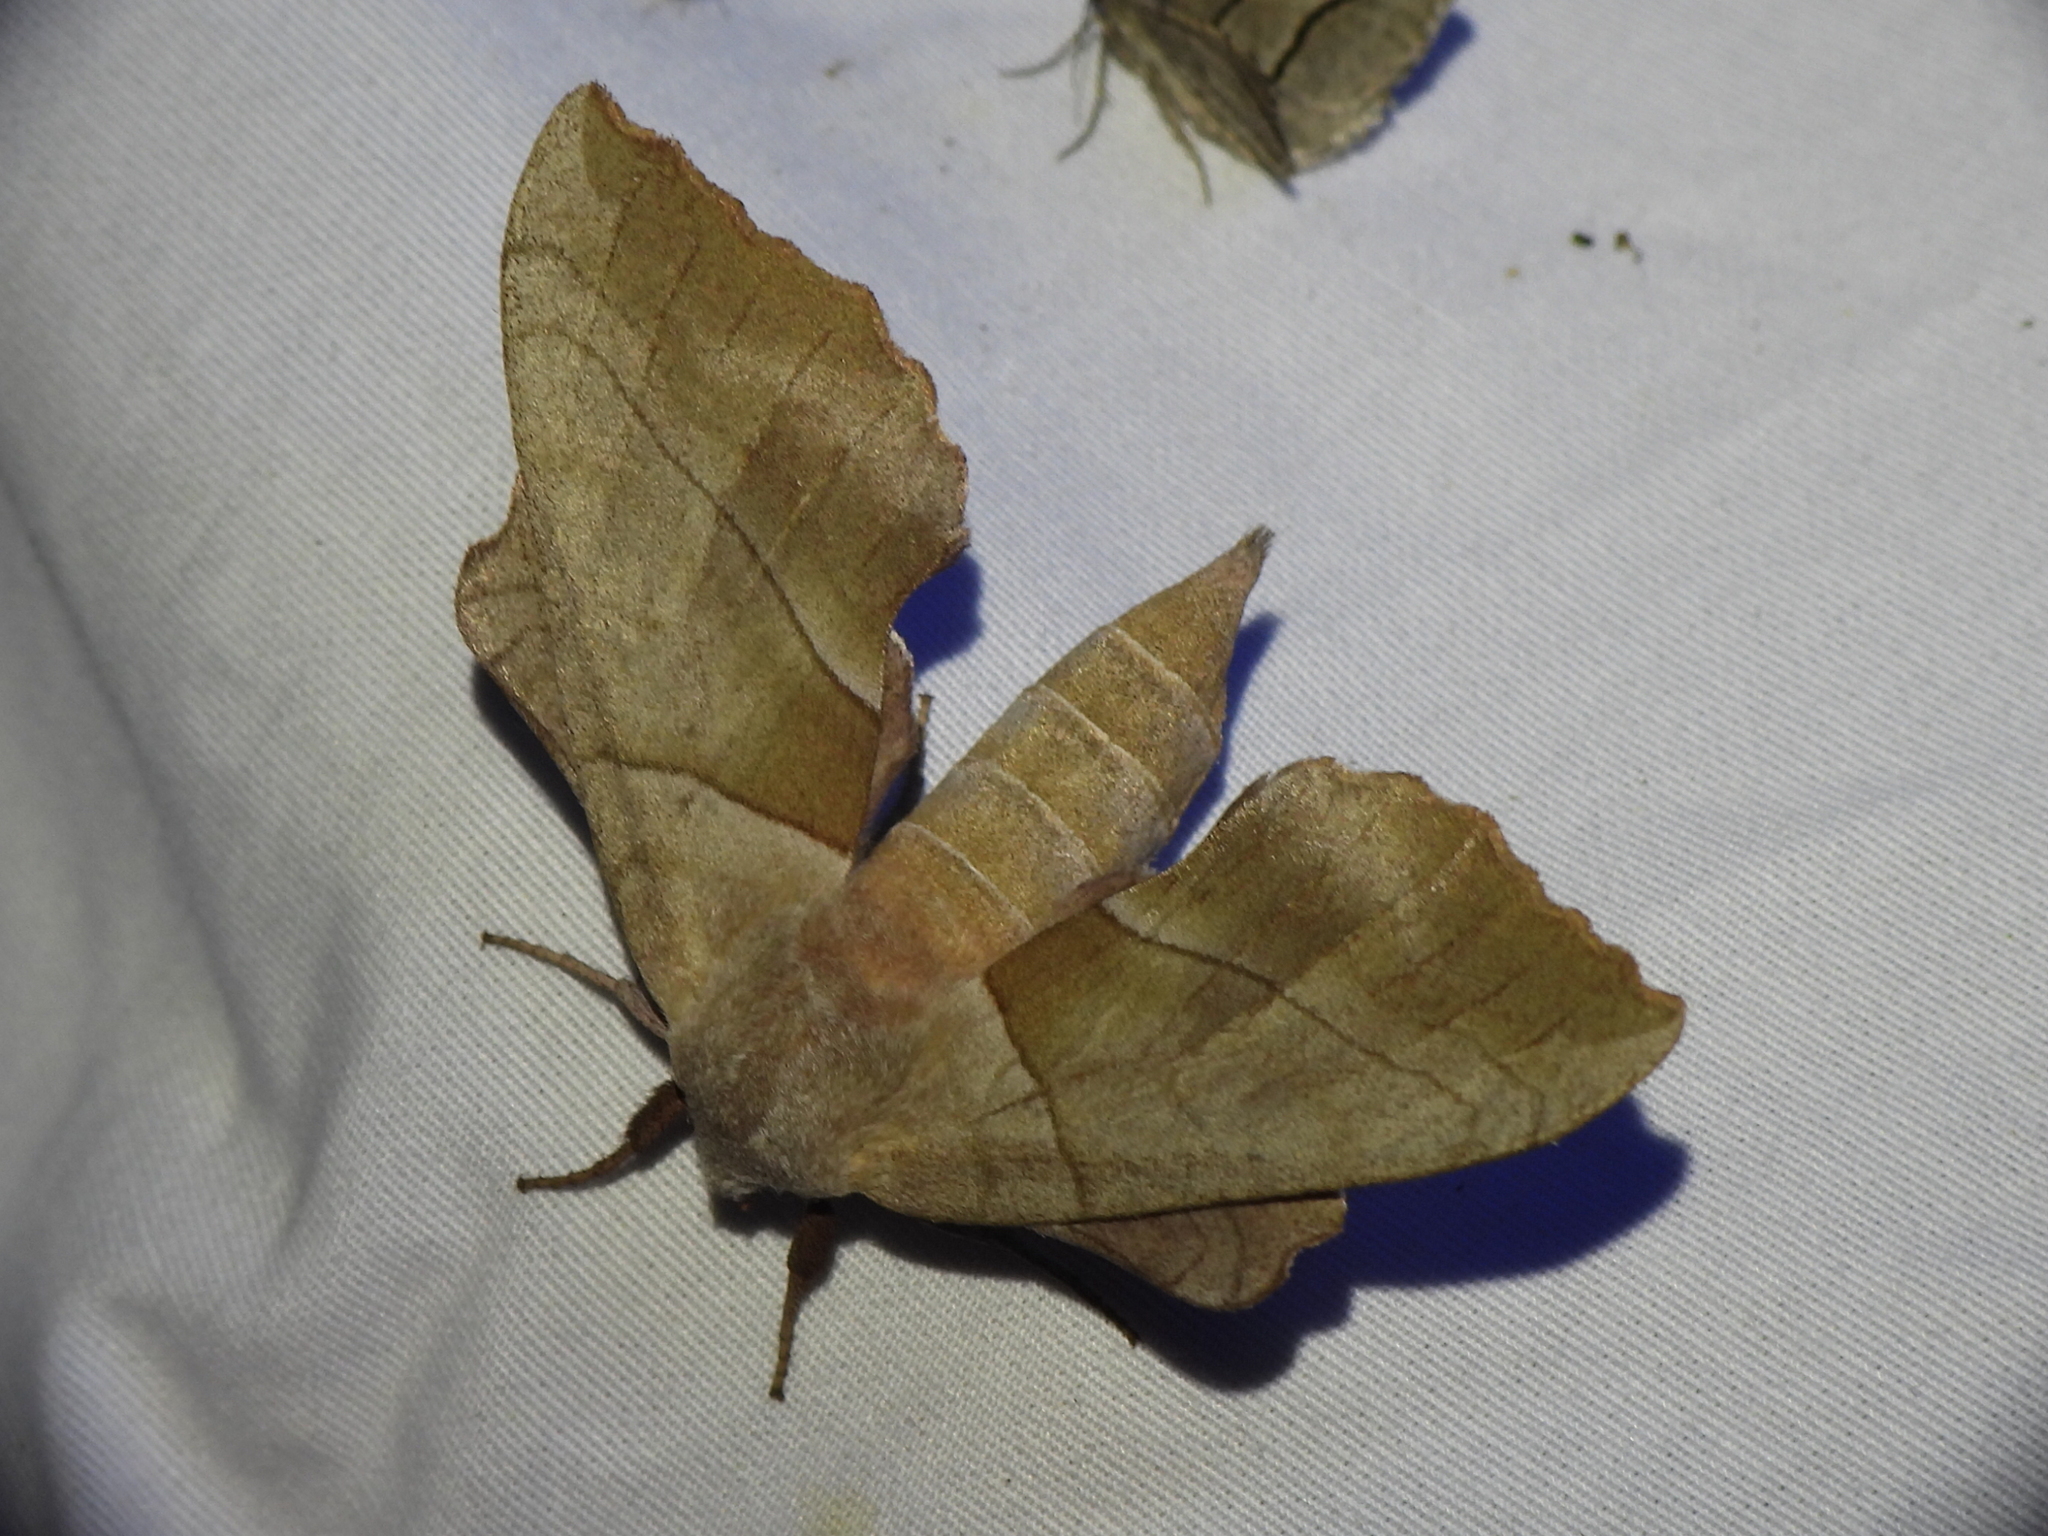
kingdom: Animalia
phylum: Arthropoda
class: Insecta
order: Lepidoptera
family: Sphingidae
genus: Amorpha
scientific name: Amorpha juglandis
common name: Walnut sphinx
